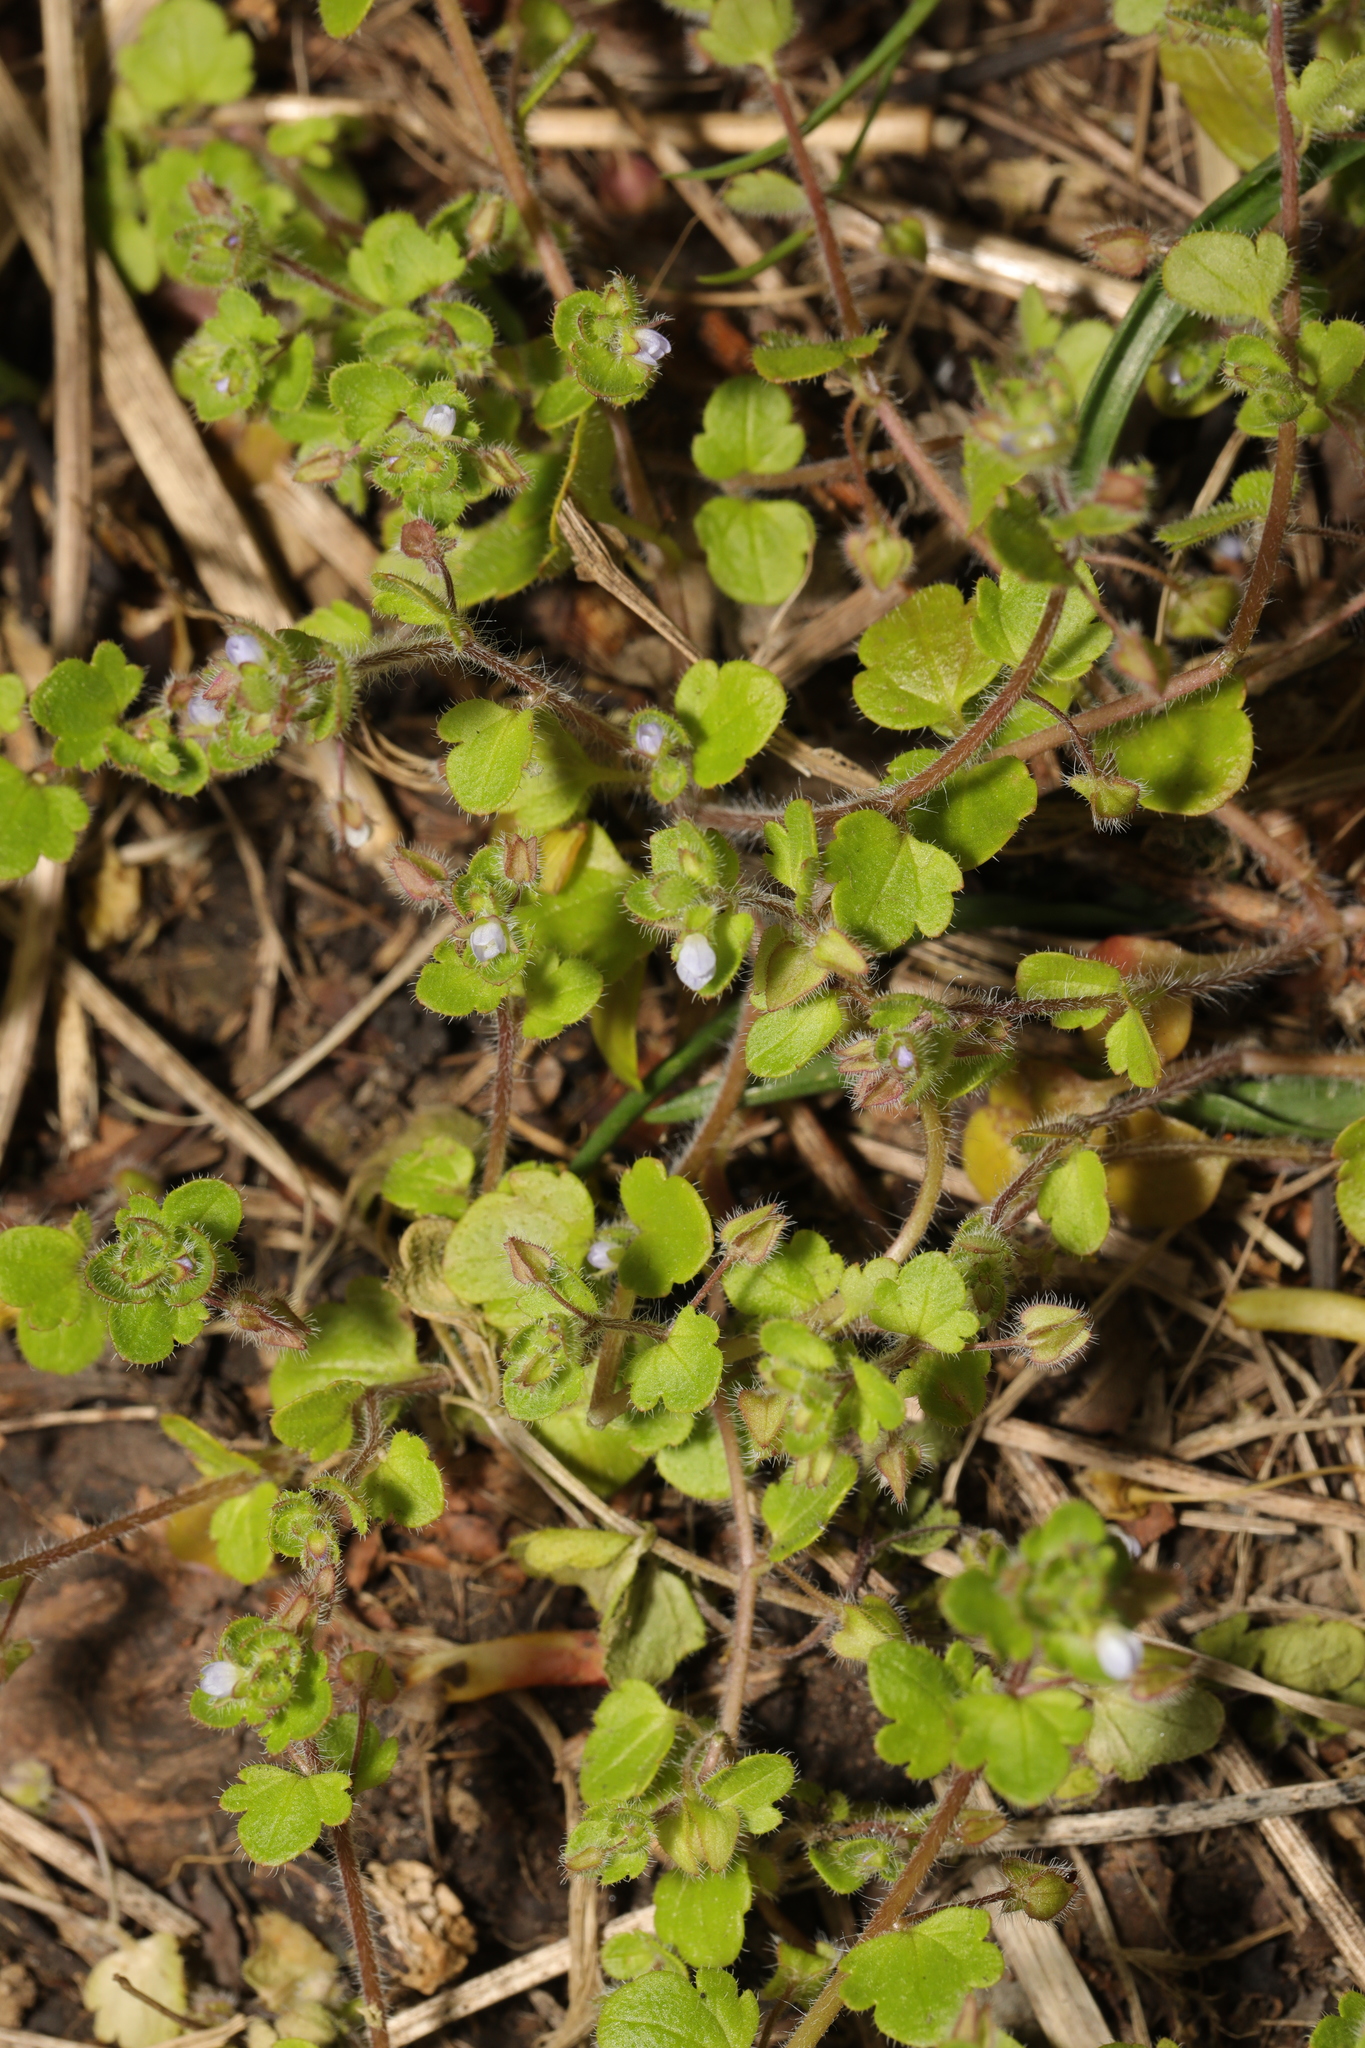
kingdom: Plantae
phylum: Tracheophyta
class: Magnoliopsida
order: Lamiales
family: Plantaginaceae
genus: Veronica
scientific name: Veronica sublobata
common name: False ivy-leaved speedwell
